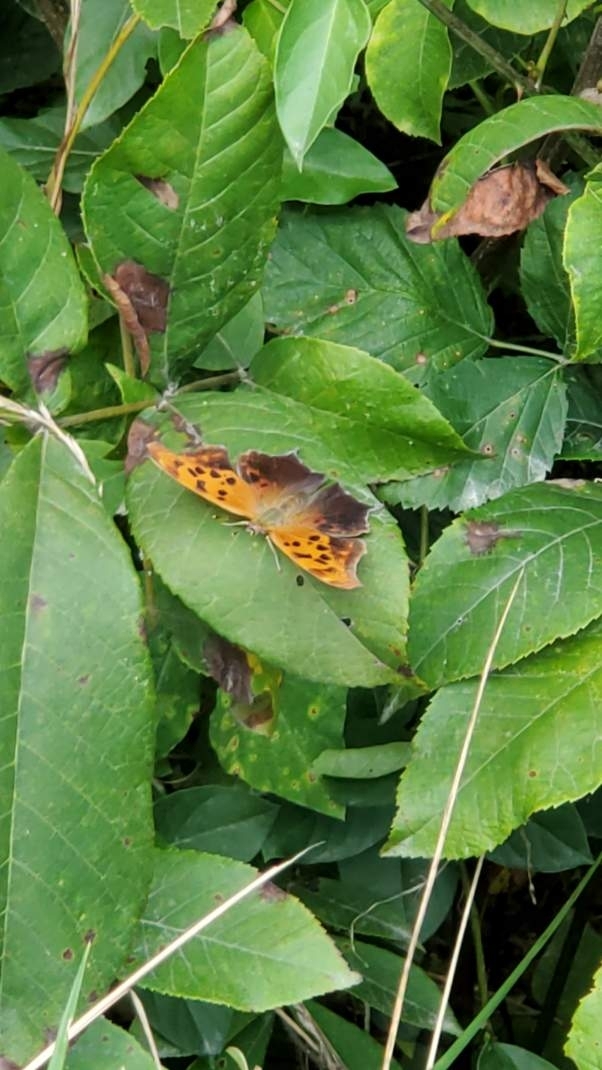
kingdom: Animalia
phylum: Arthropoda
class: Insecta
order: Lepidoptera
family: Nymphalidae
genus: Polygonia
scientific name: Polygonia interrogationis
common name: Question mark
